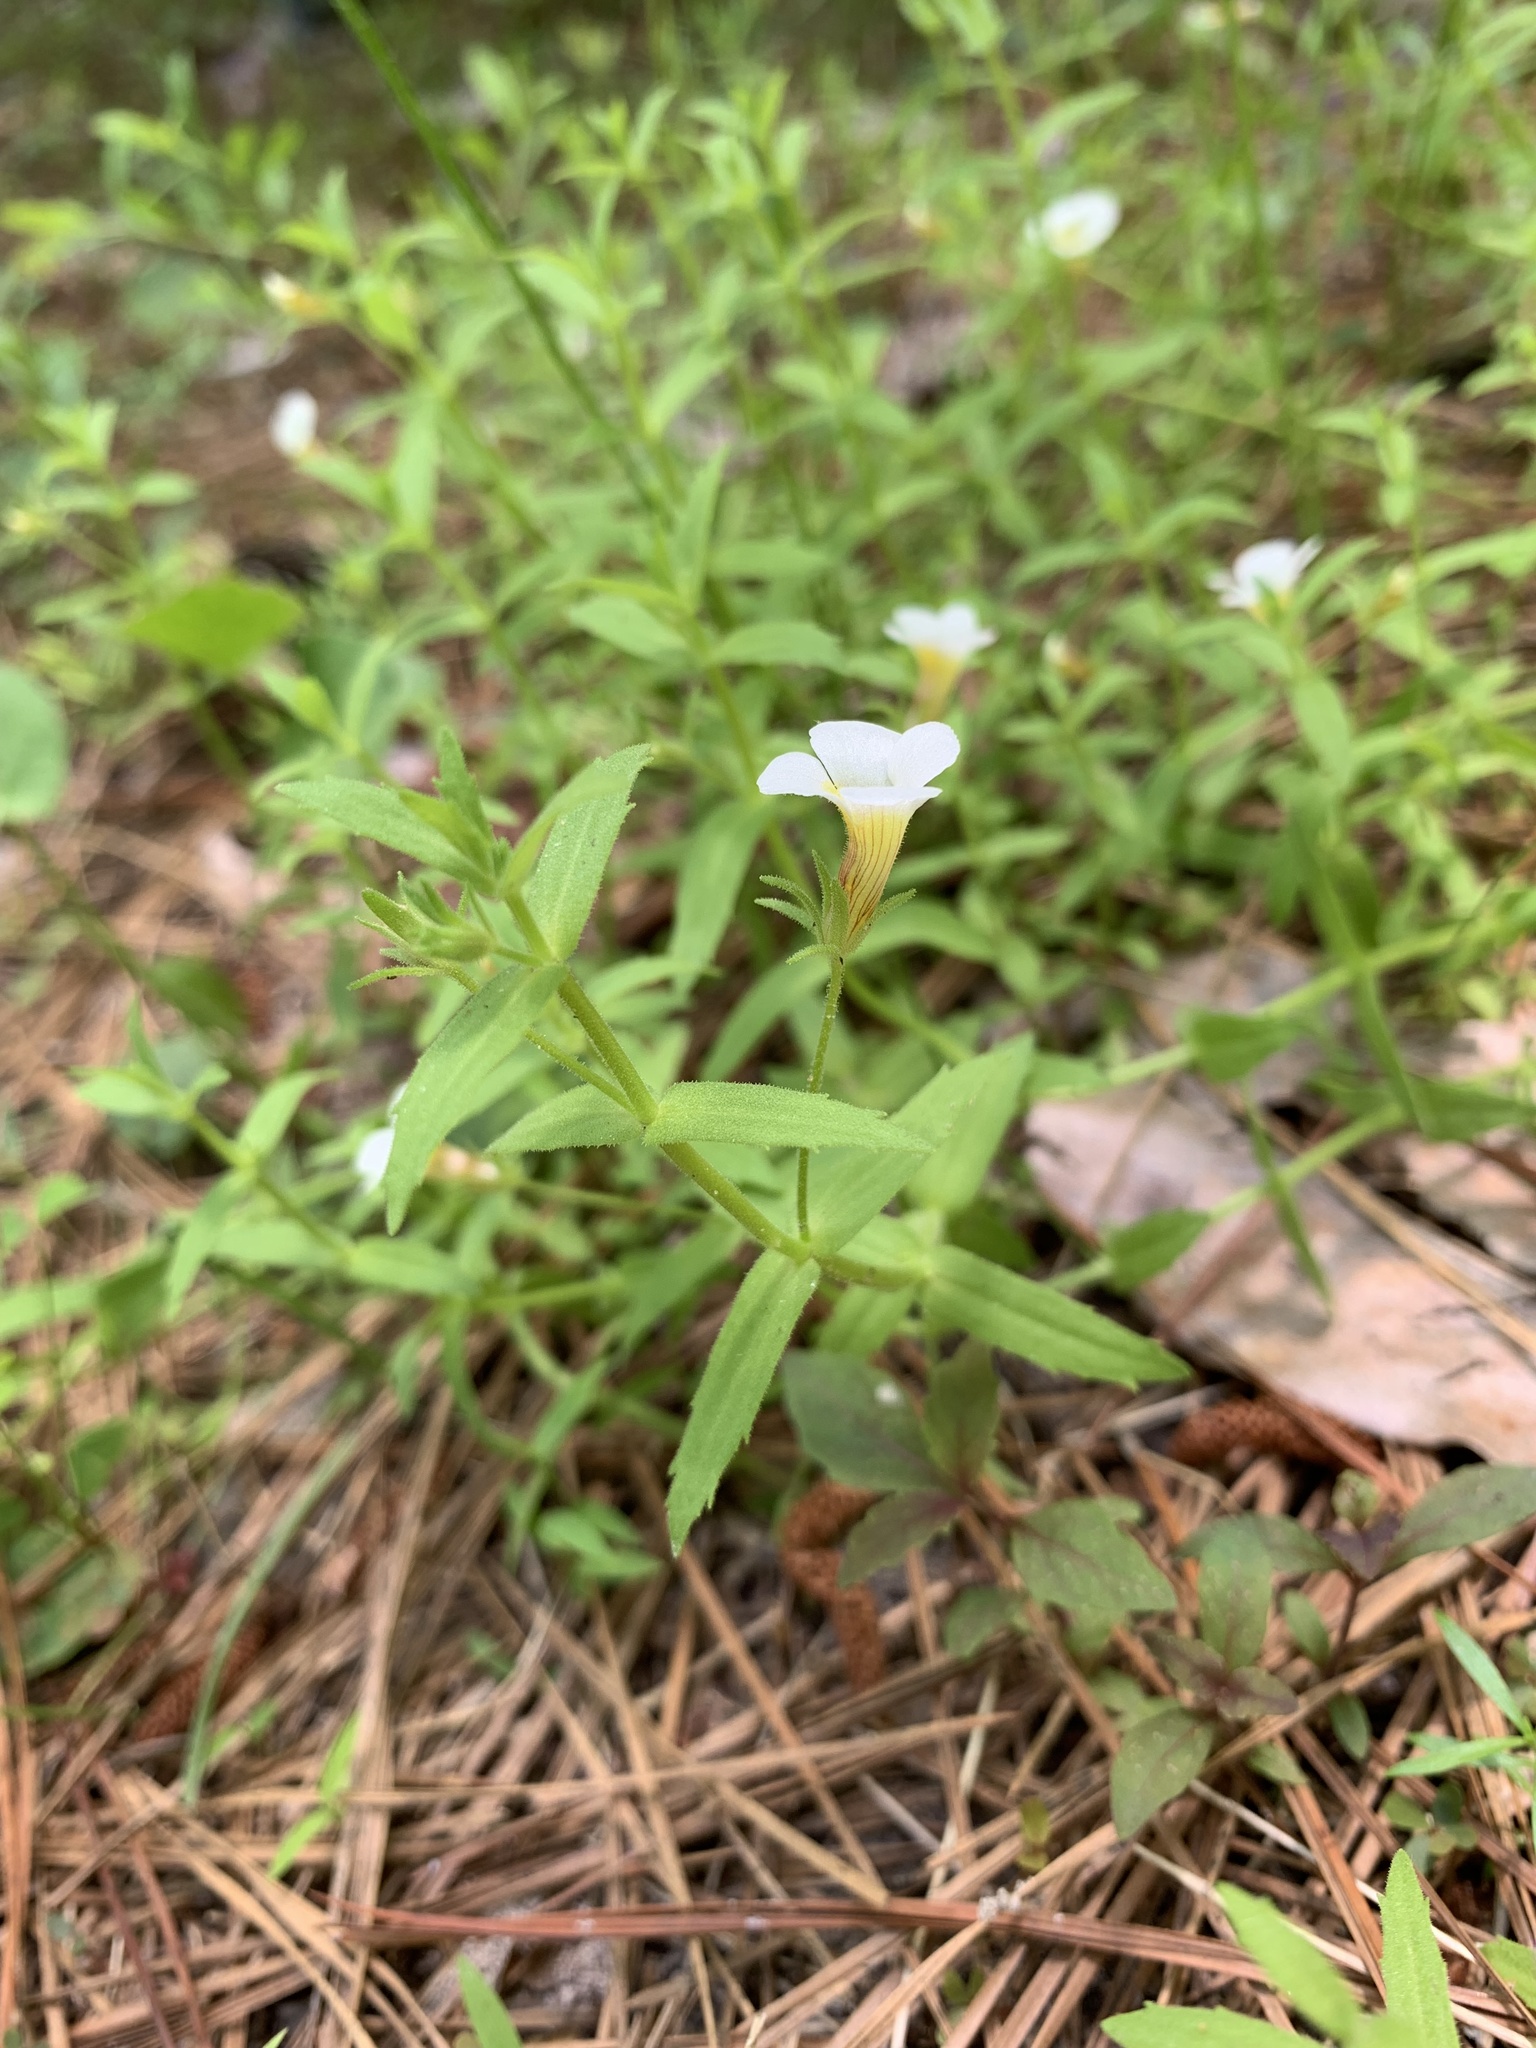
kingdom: Plantae
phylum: Tracheophyta
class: Magnoliopsida
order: Lamiales
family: Plantaginaceae
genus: Gratiola
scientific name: Gratiola brevifolia
